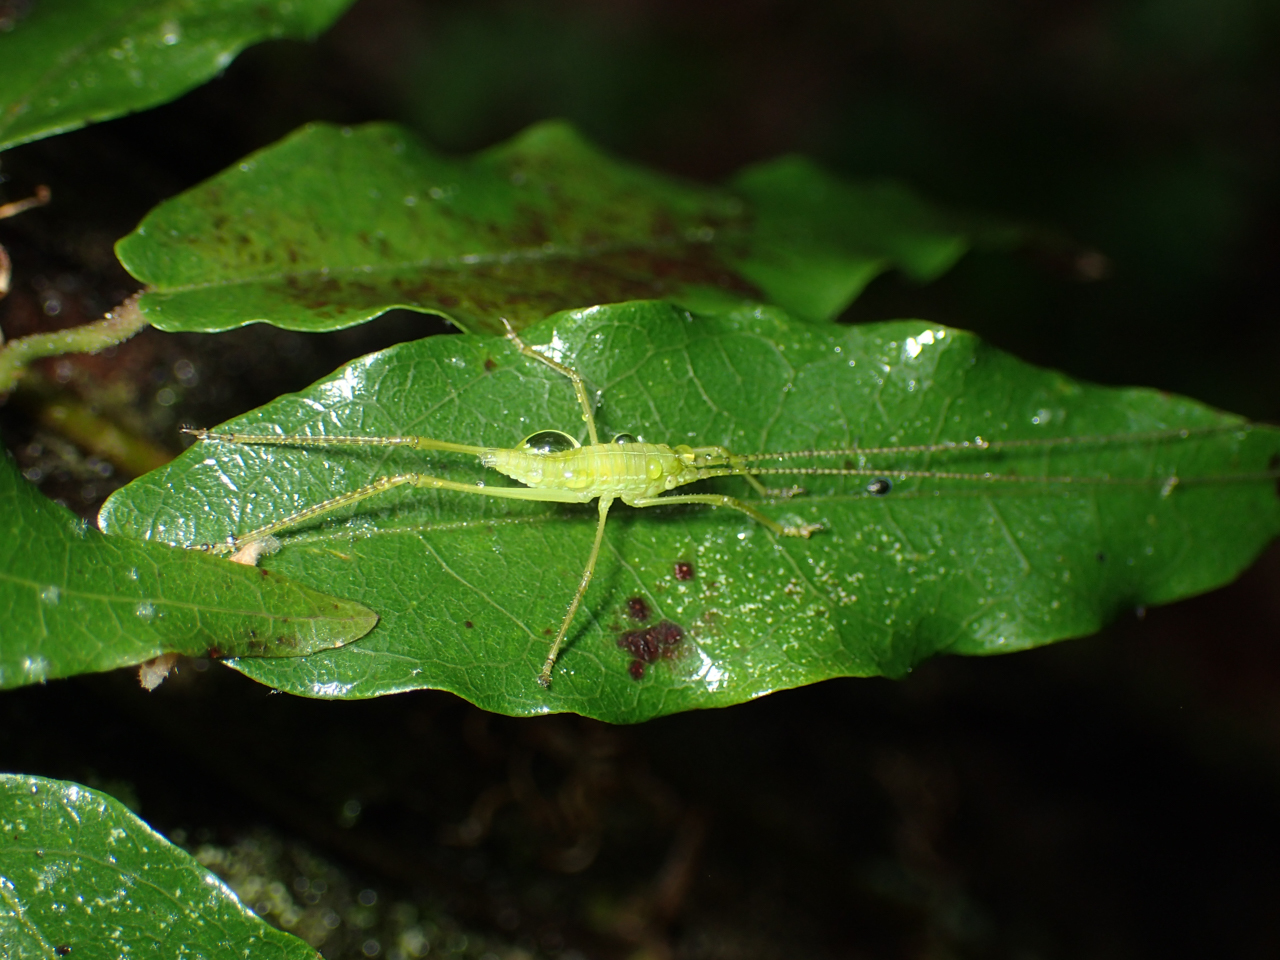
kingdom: Animalia
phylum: Arthropoda
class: Insecta
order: Orthoptera
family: Tettigoniidae
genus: Pterophylla
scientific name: Pterophylla camellifolia
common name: Common true katydid
